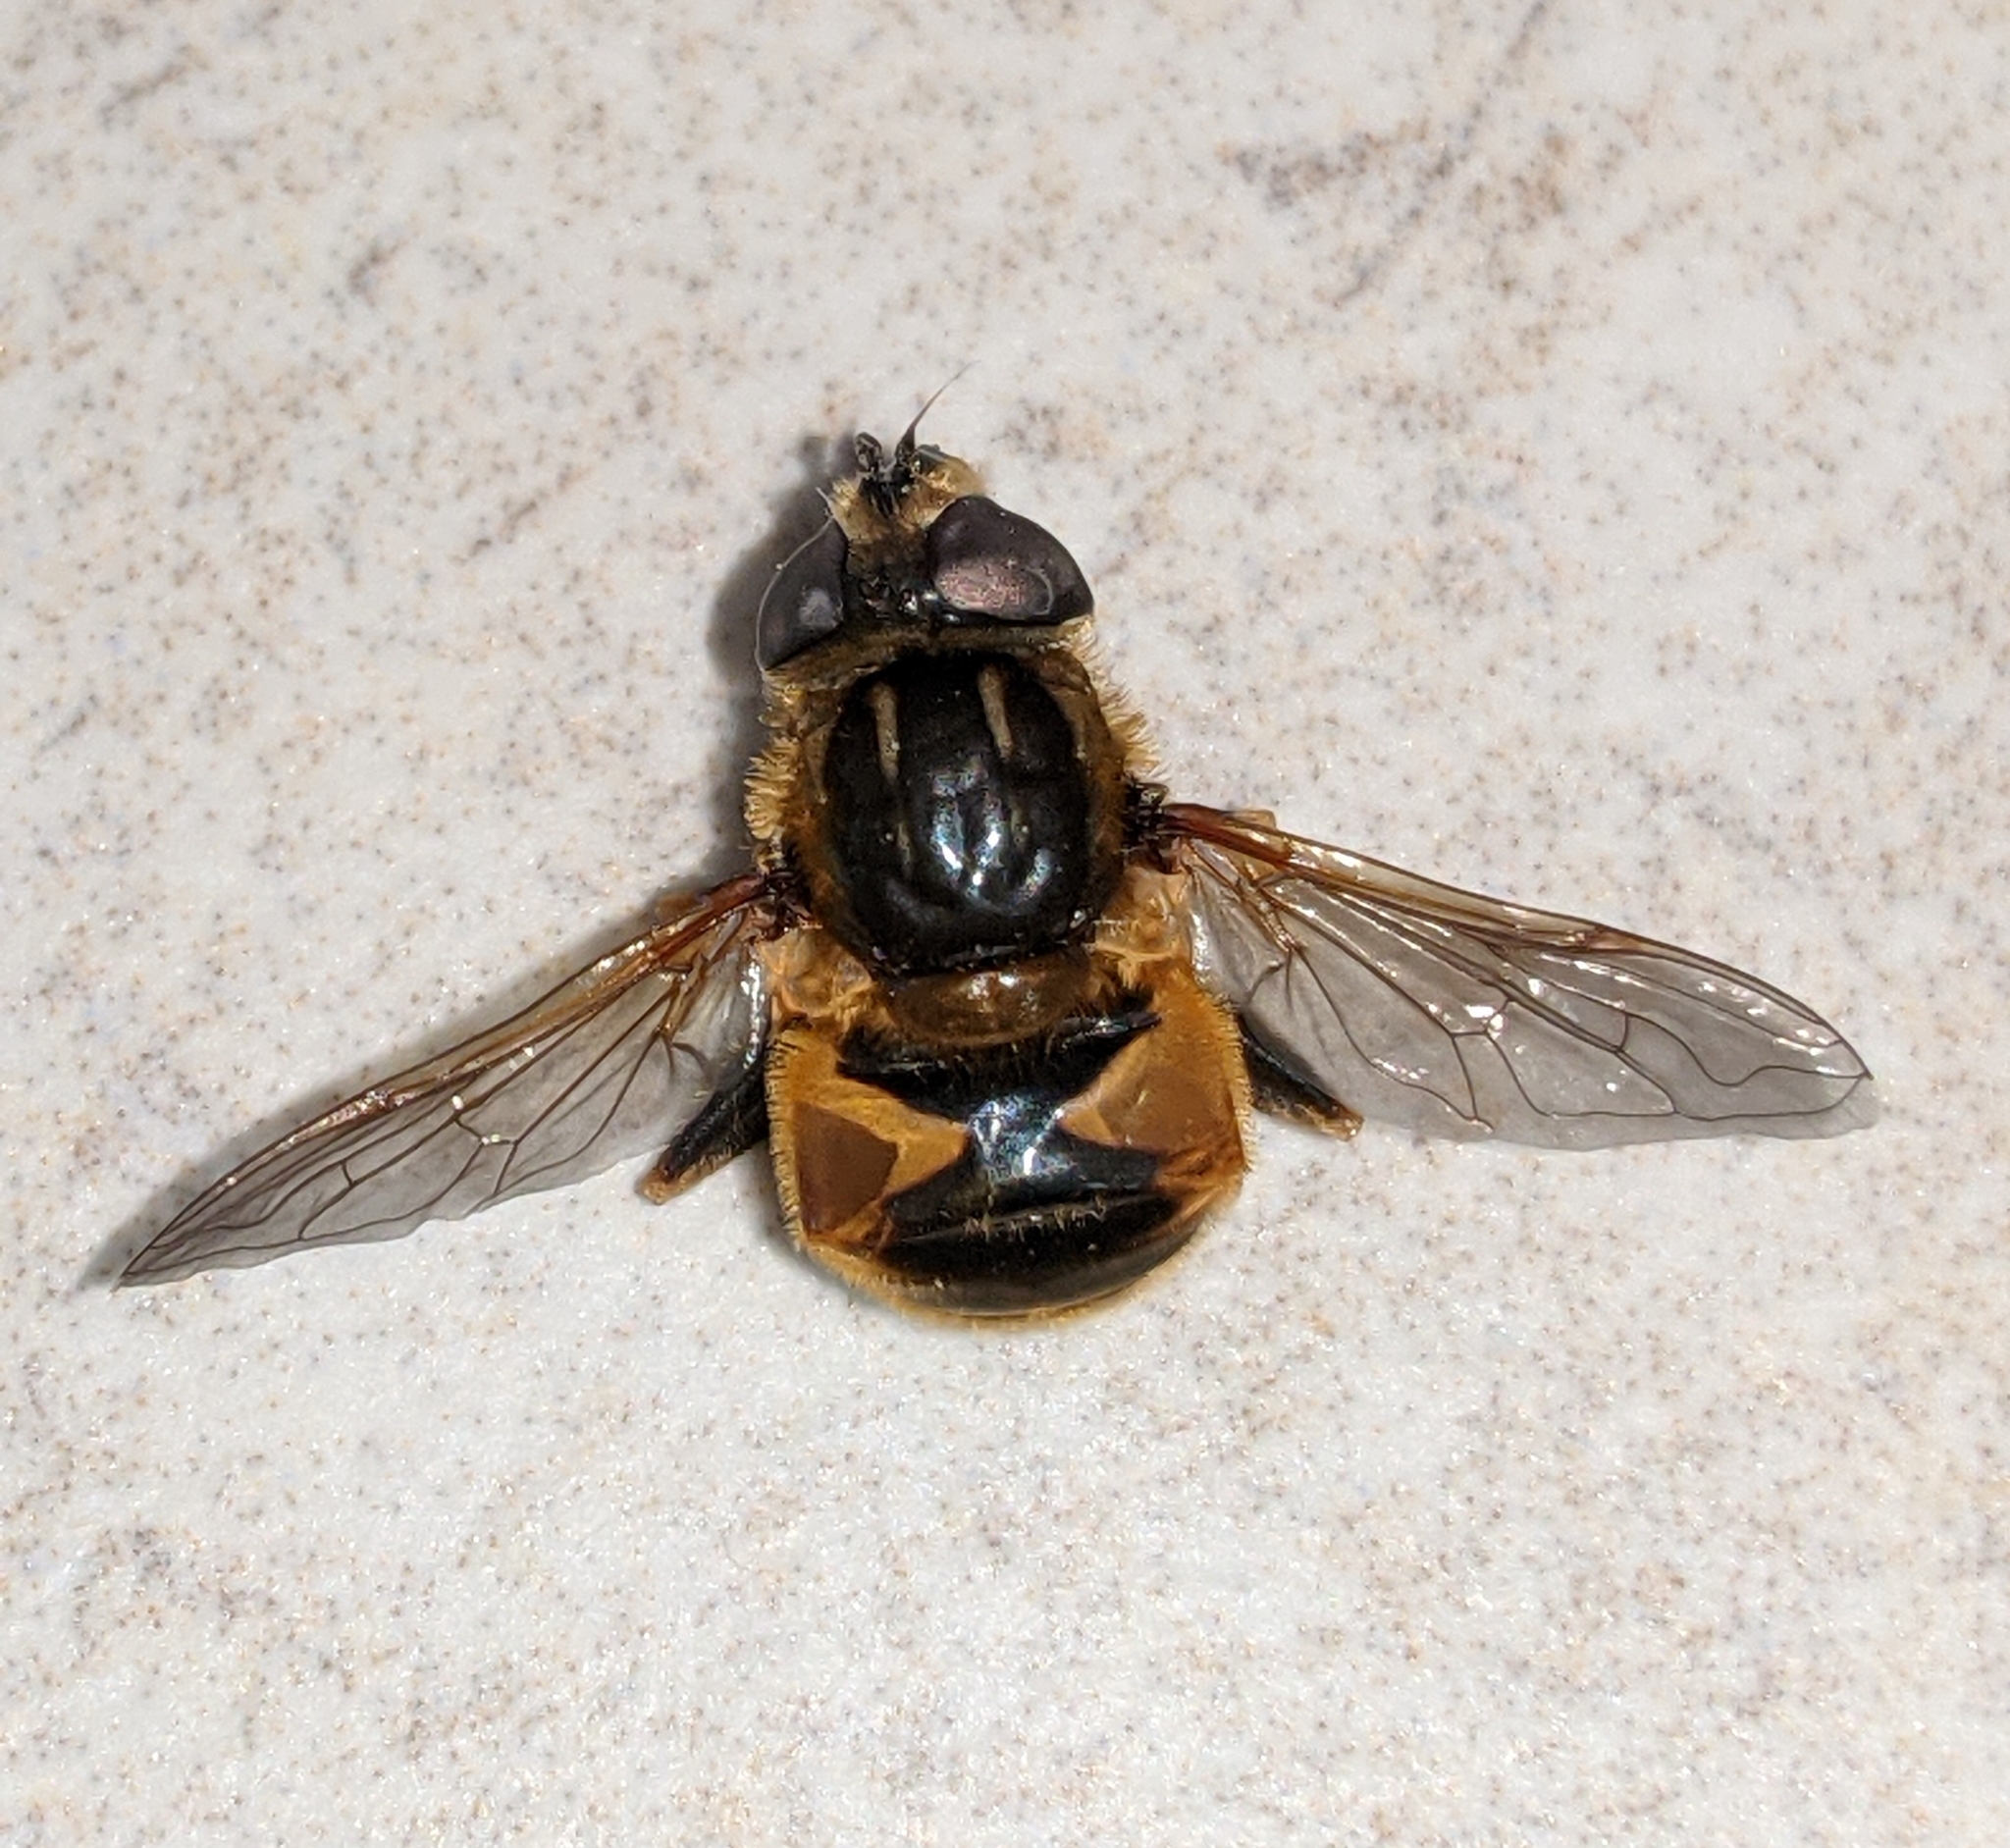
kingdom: Animalia
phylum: Arthropoda
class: Insecta
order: Diptera
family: Syrphidae
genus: Helophilus
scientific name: Helophilus lapponicus
